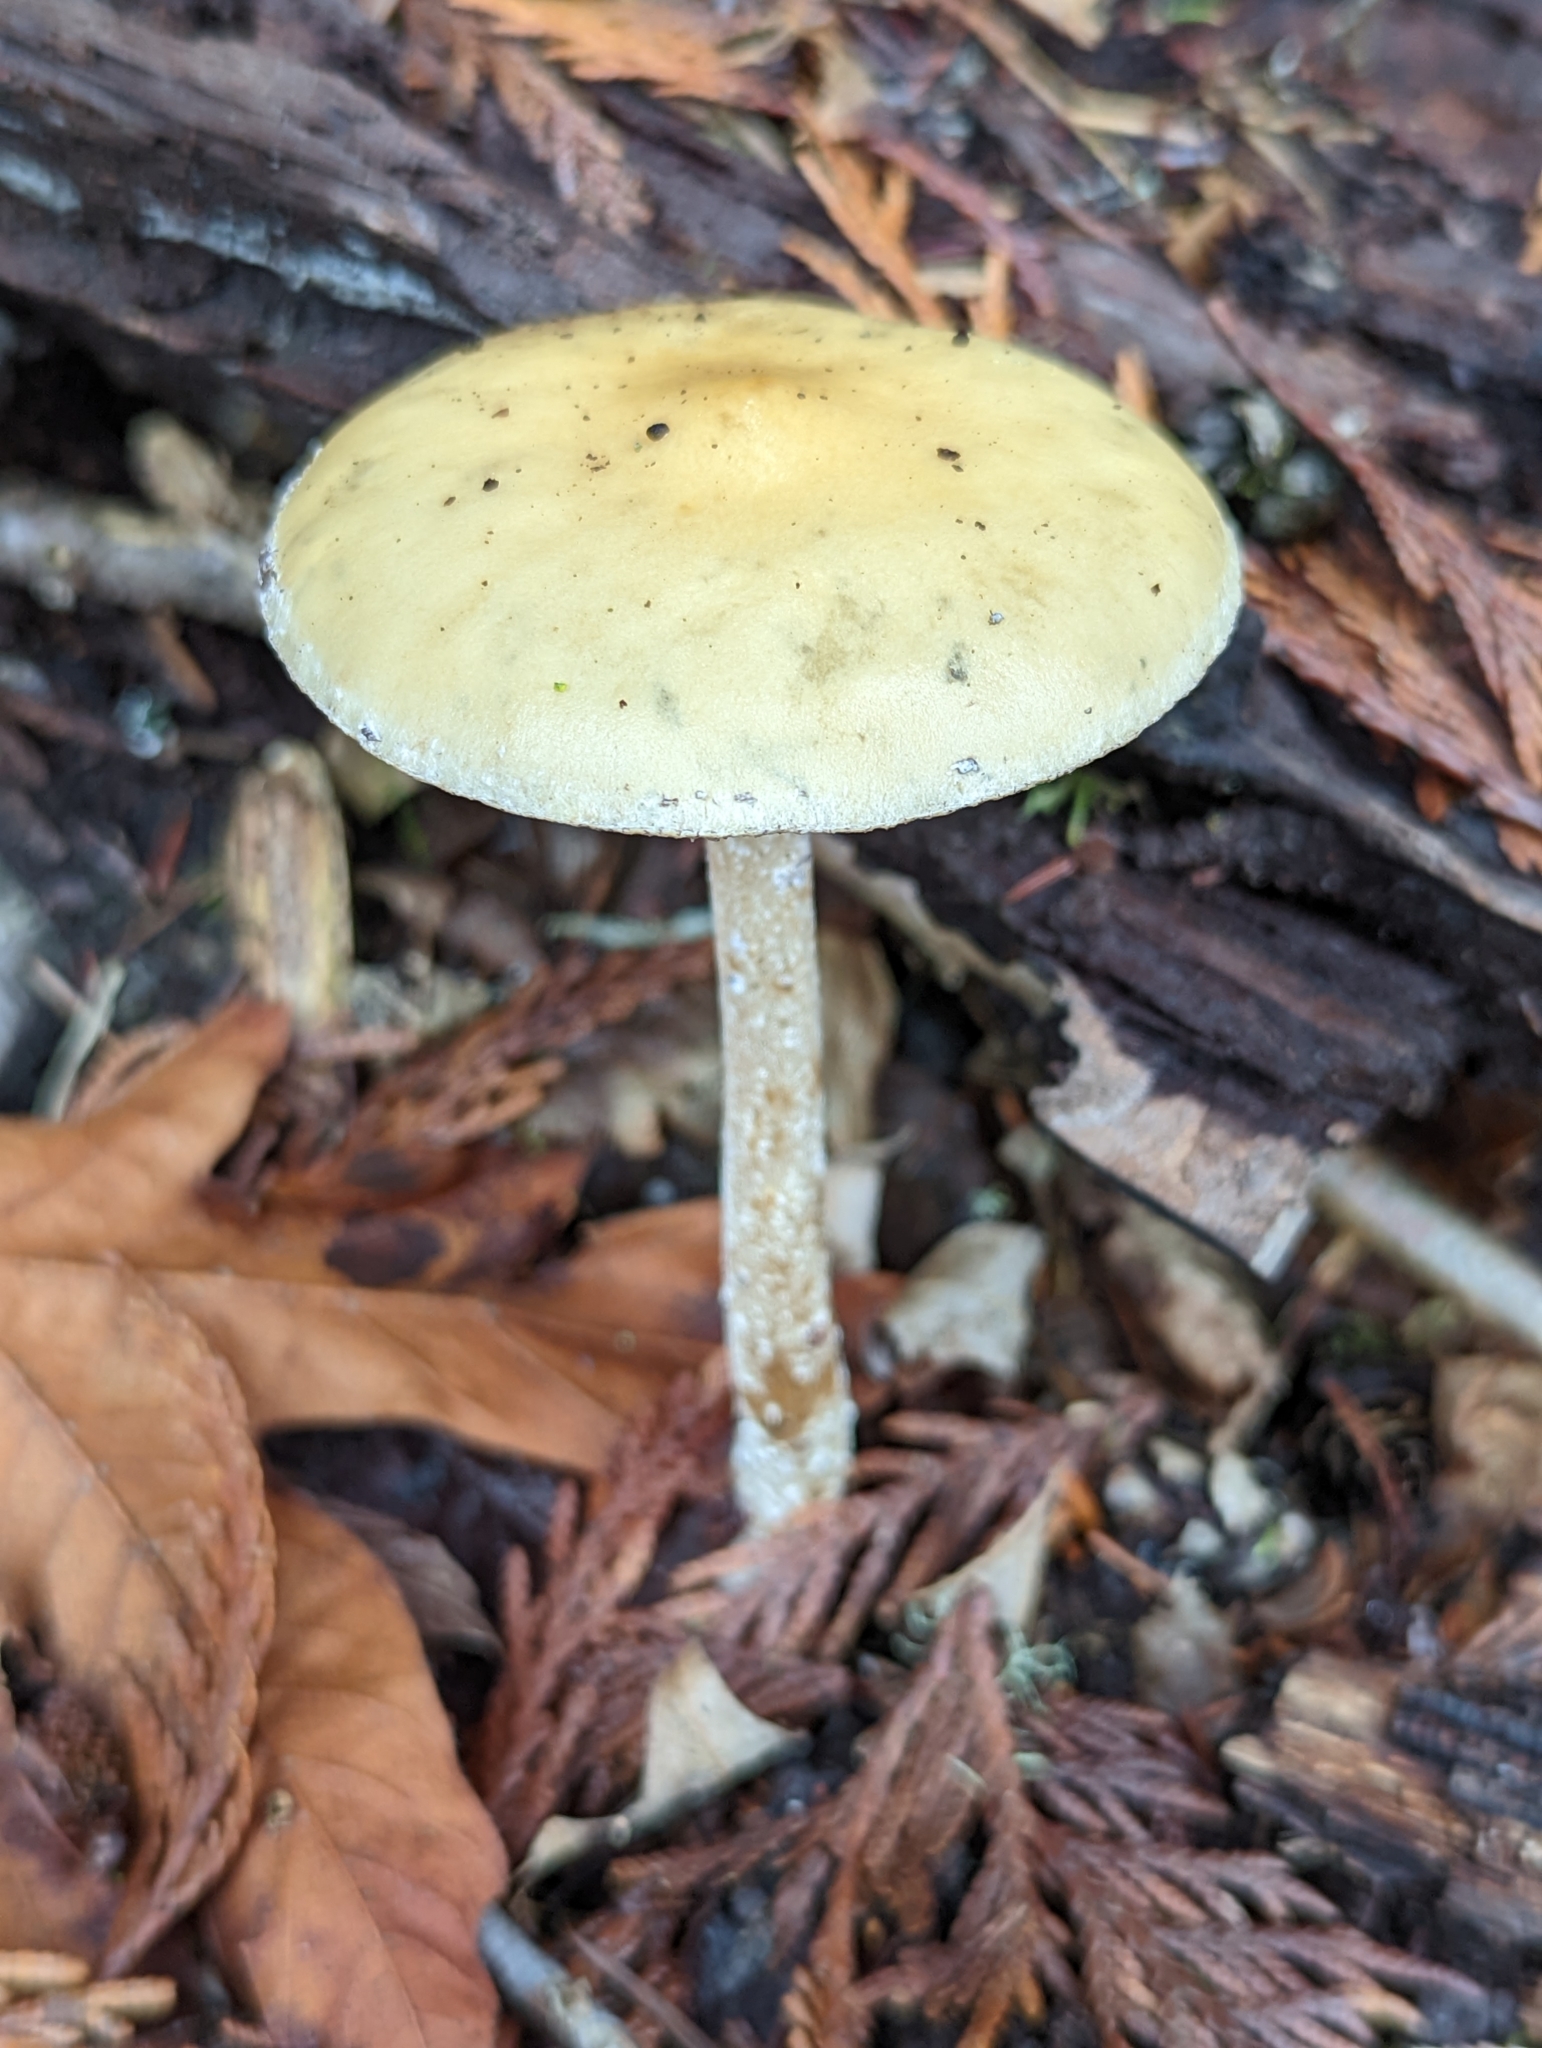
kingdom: Fungi
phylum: Basidiomycota
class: Agaricomycetes
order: Agaricales
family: Strophariaceae
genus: Stropharia
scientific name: Stropharia ambigua
